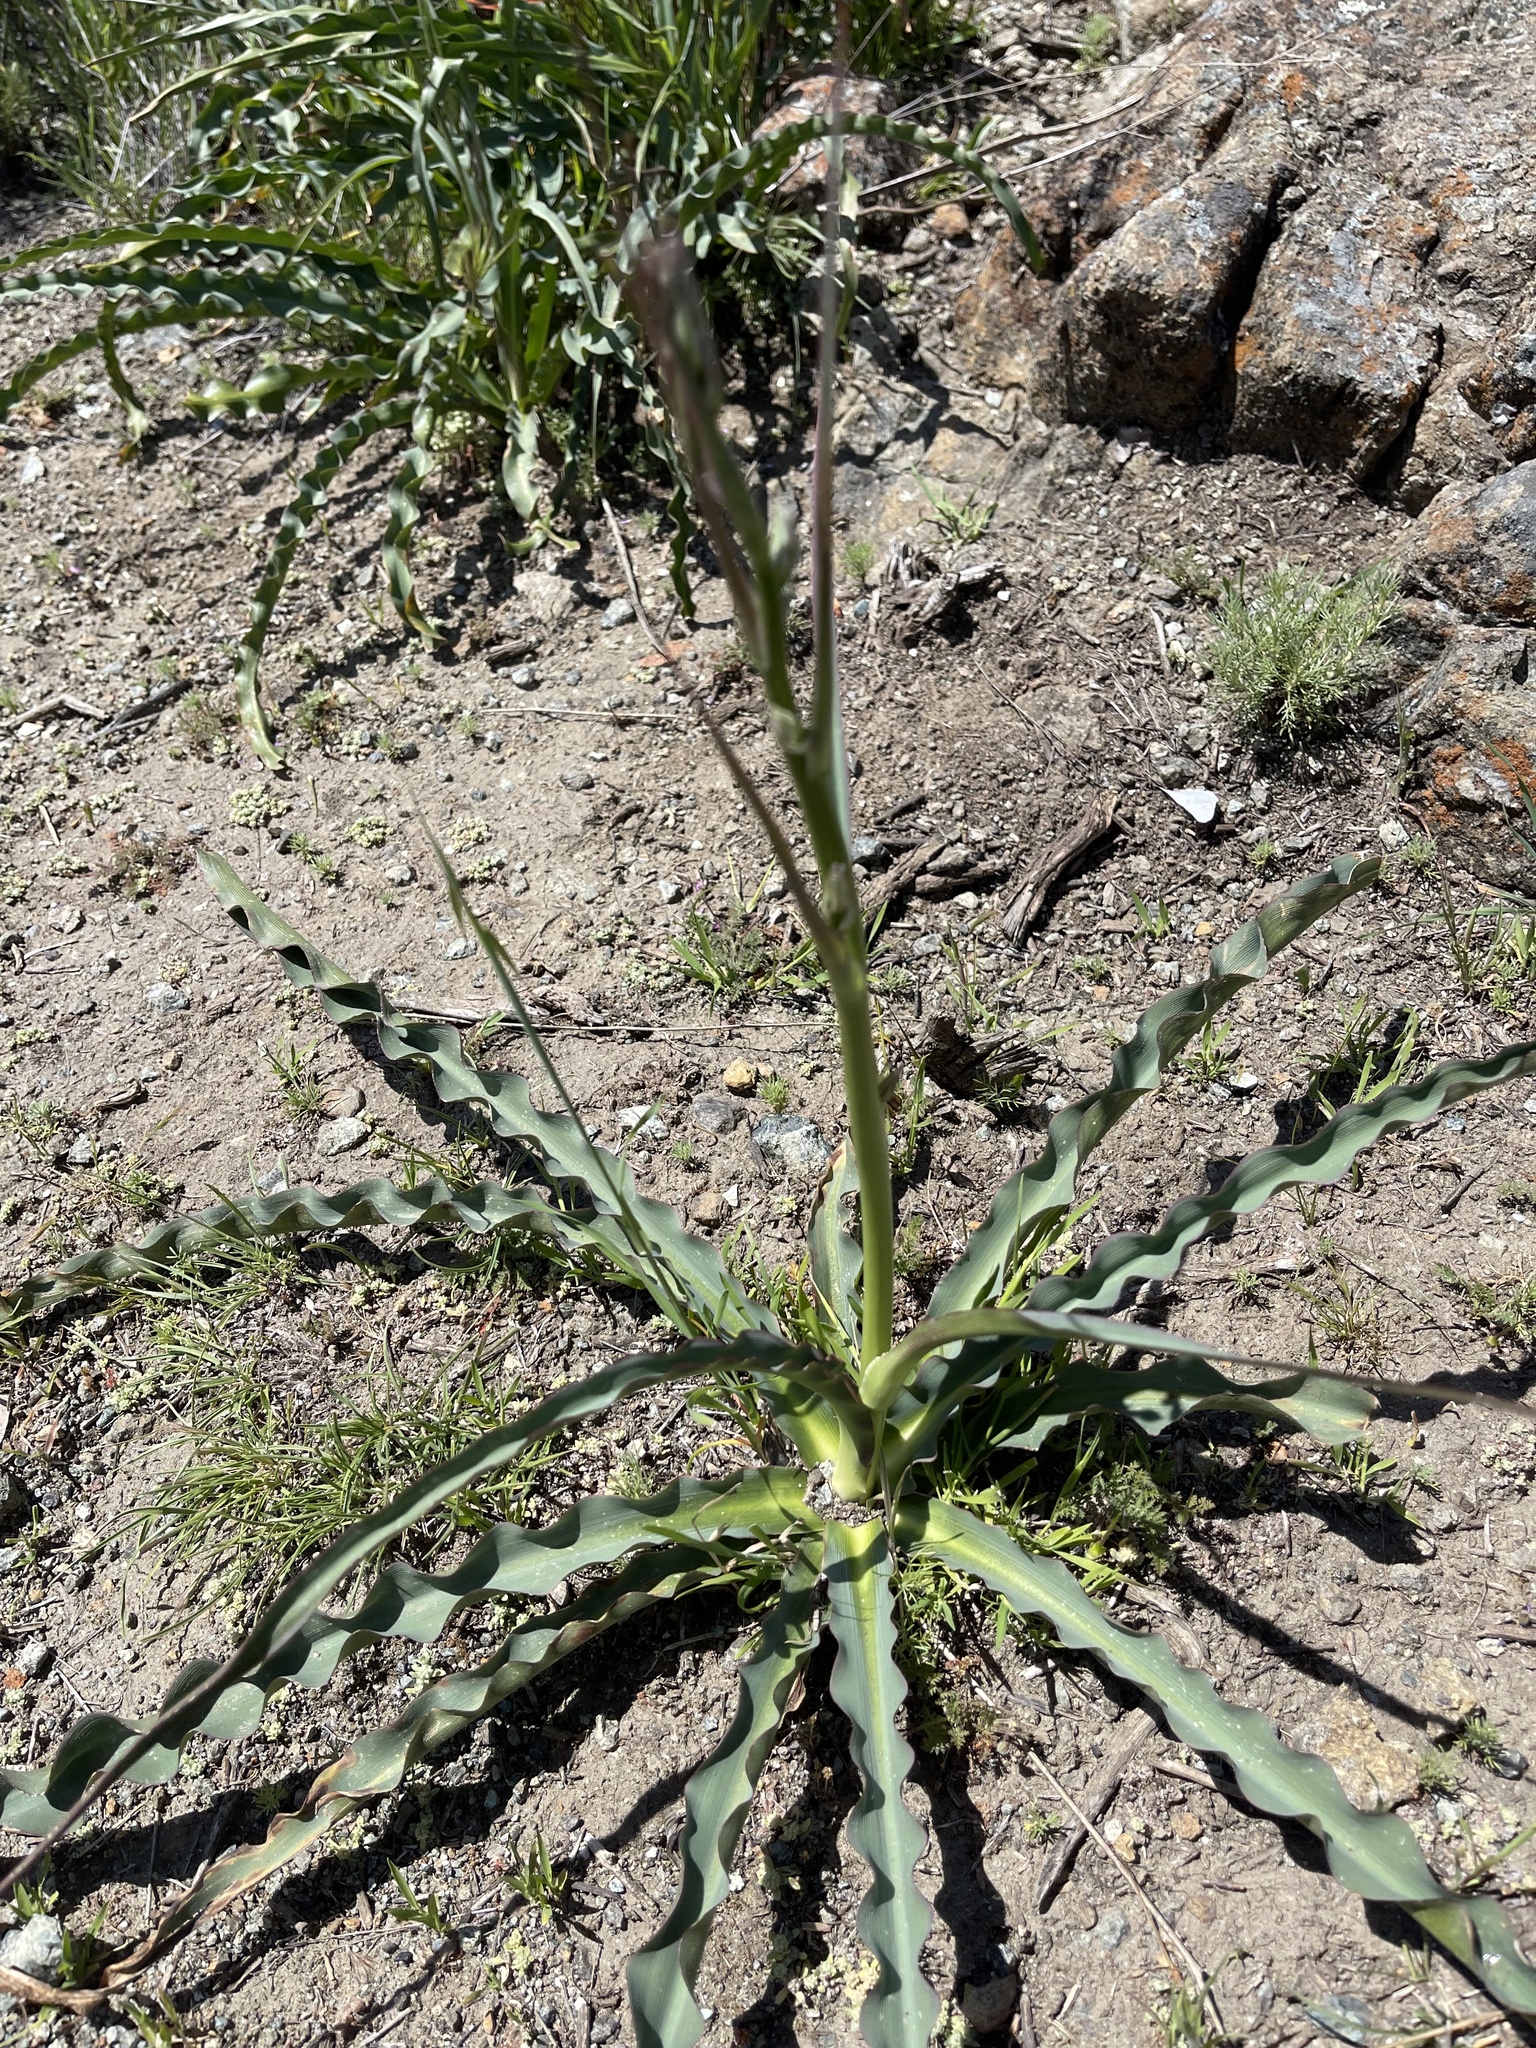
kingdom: Plantae
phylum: Tracheophyta
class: Liliopsida
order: Asparagales
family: Asparagaceae
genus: Chlorogalum
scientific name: Chlorogalum pomeridianum
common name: Amole
